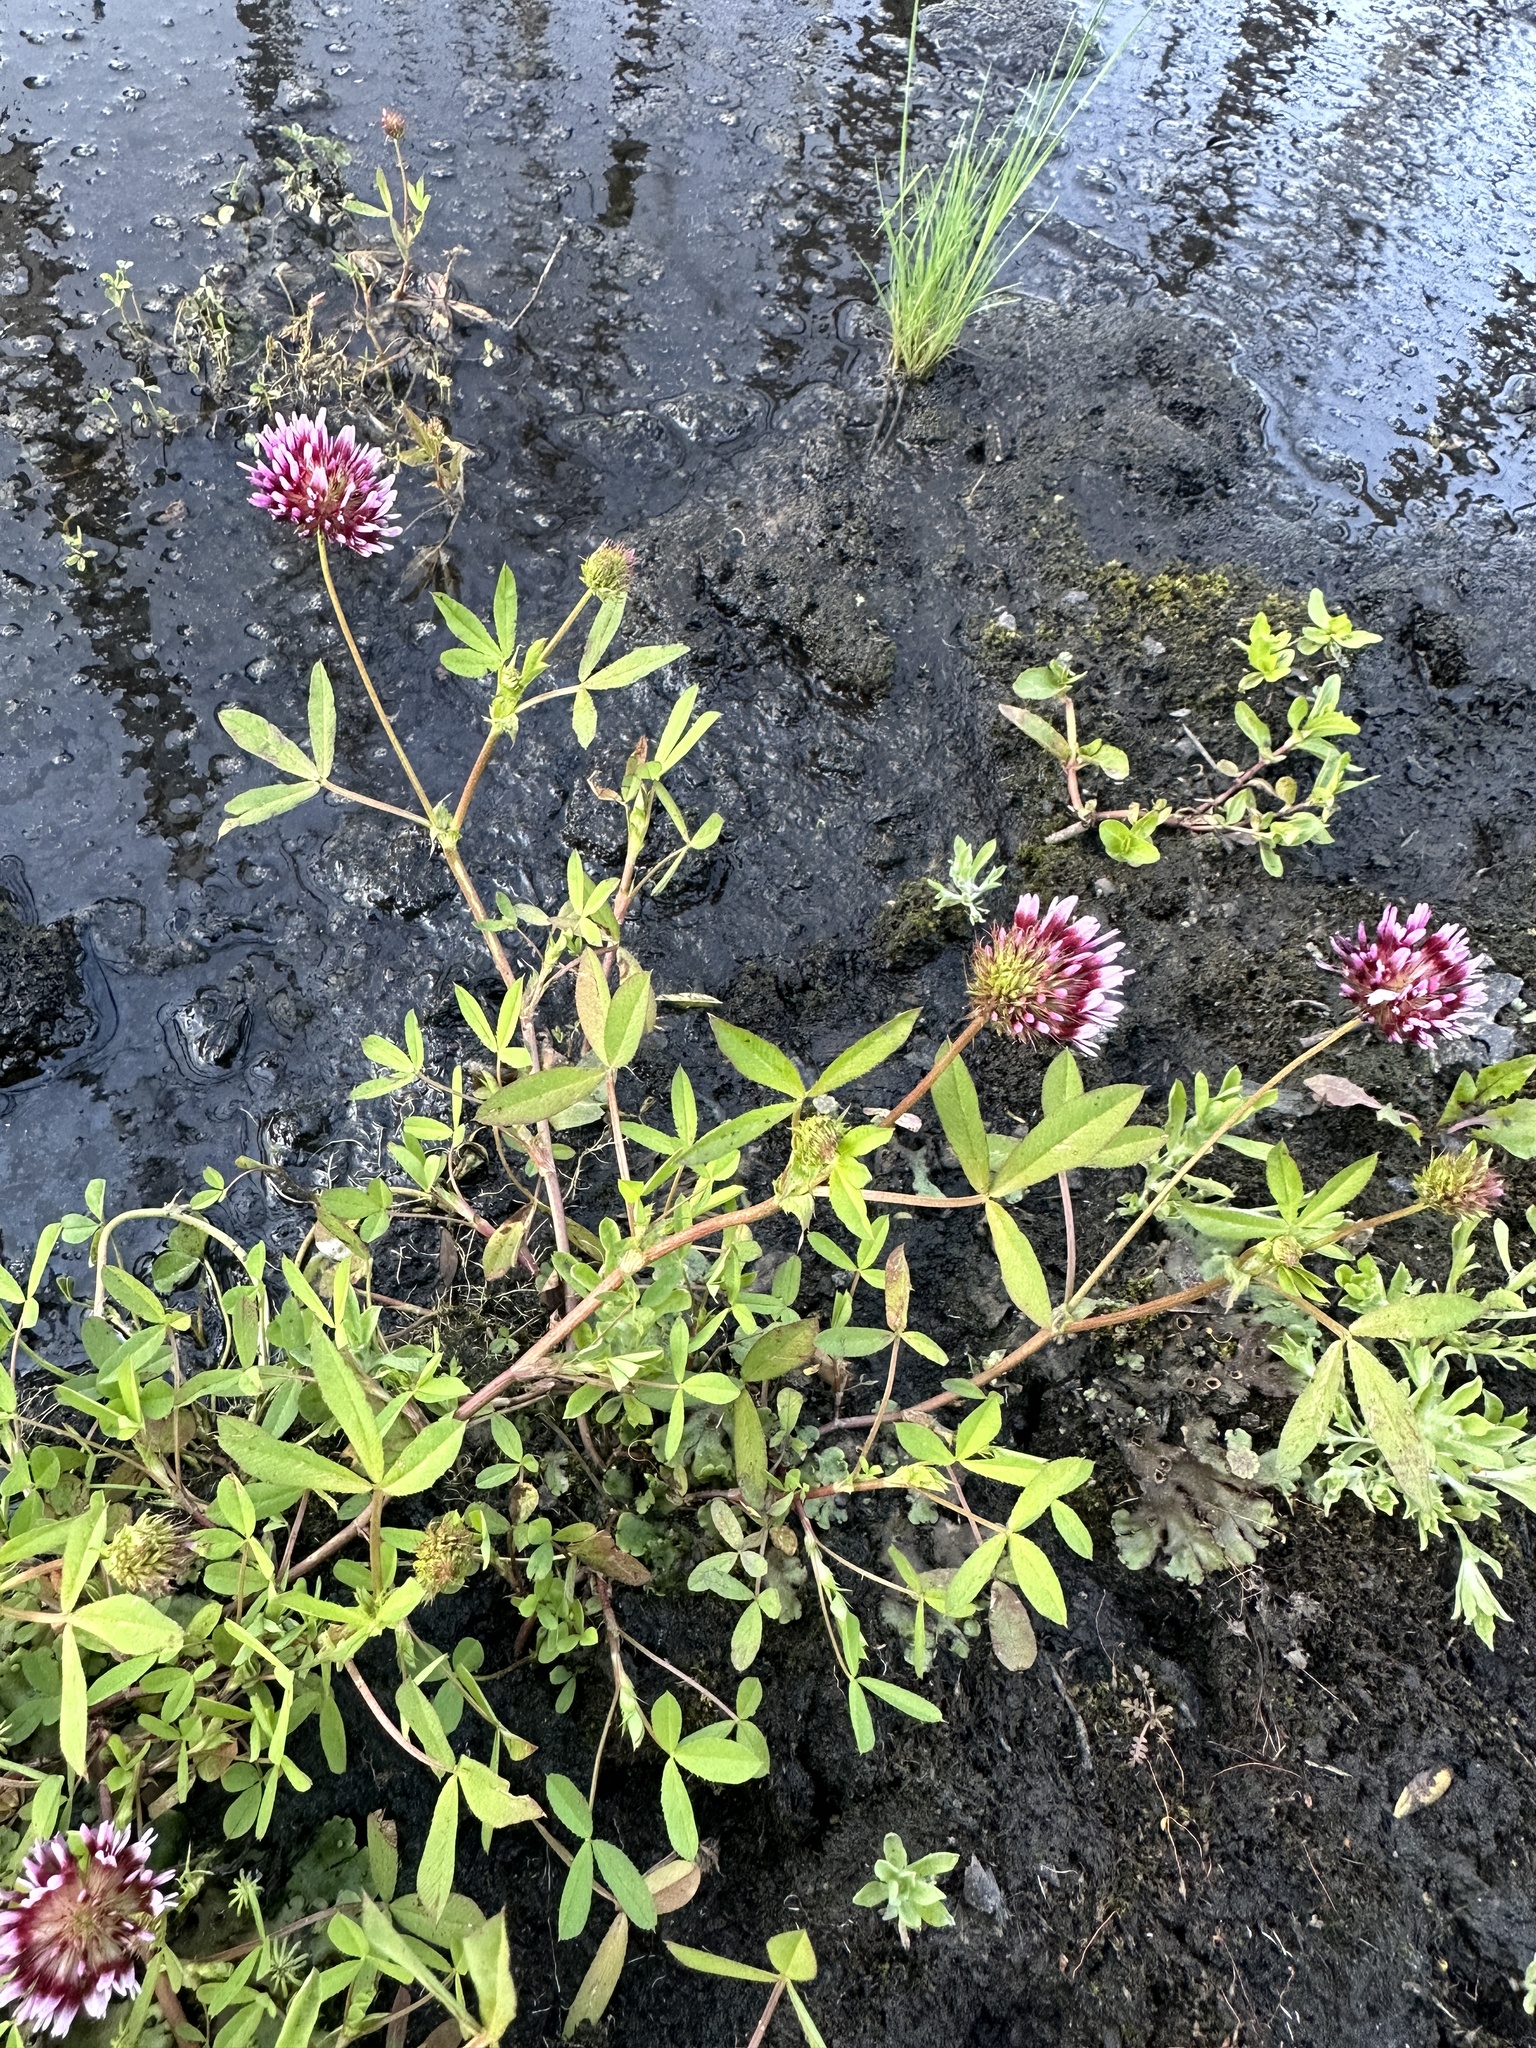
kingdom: Plantae
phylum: Tracheophyta
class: Magnoliopsida
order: Fabales
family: Fabaceae
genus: Trifolium
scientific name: Trifolium wormskioldii
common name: Springbank clover
